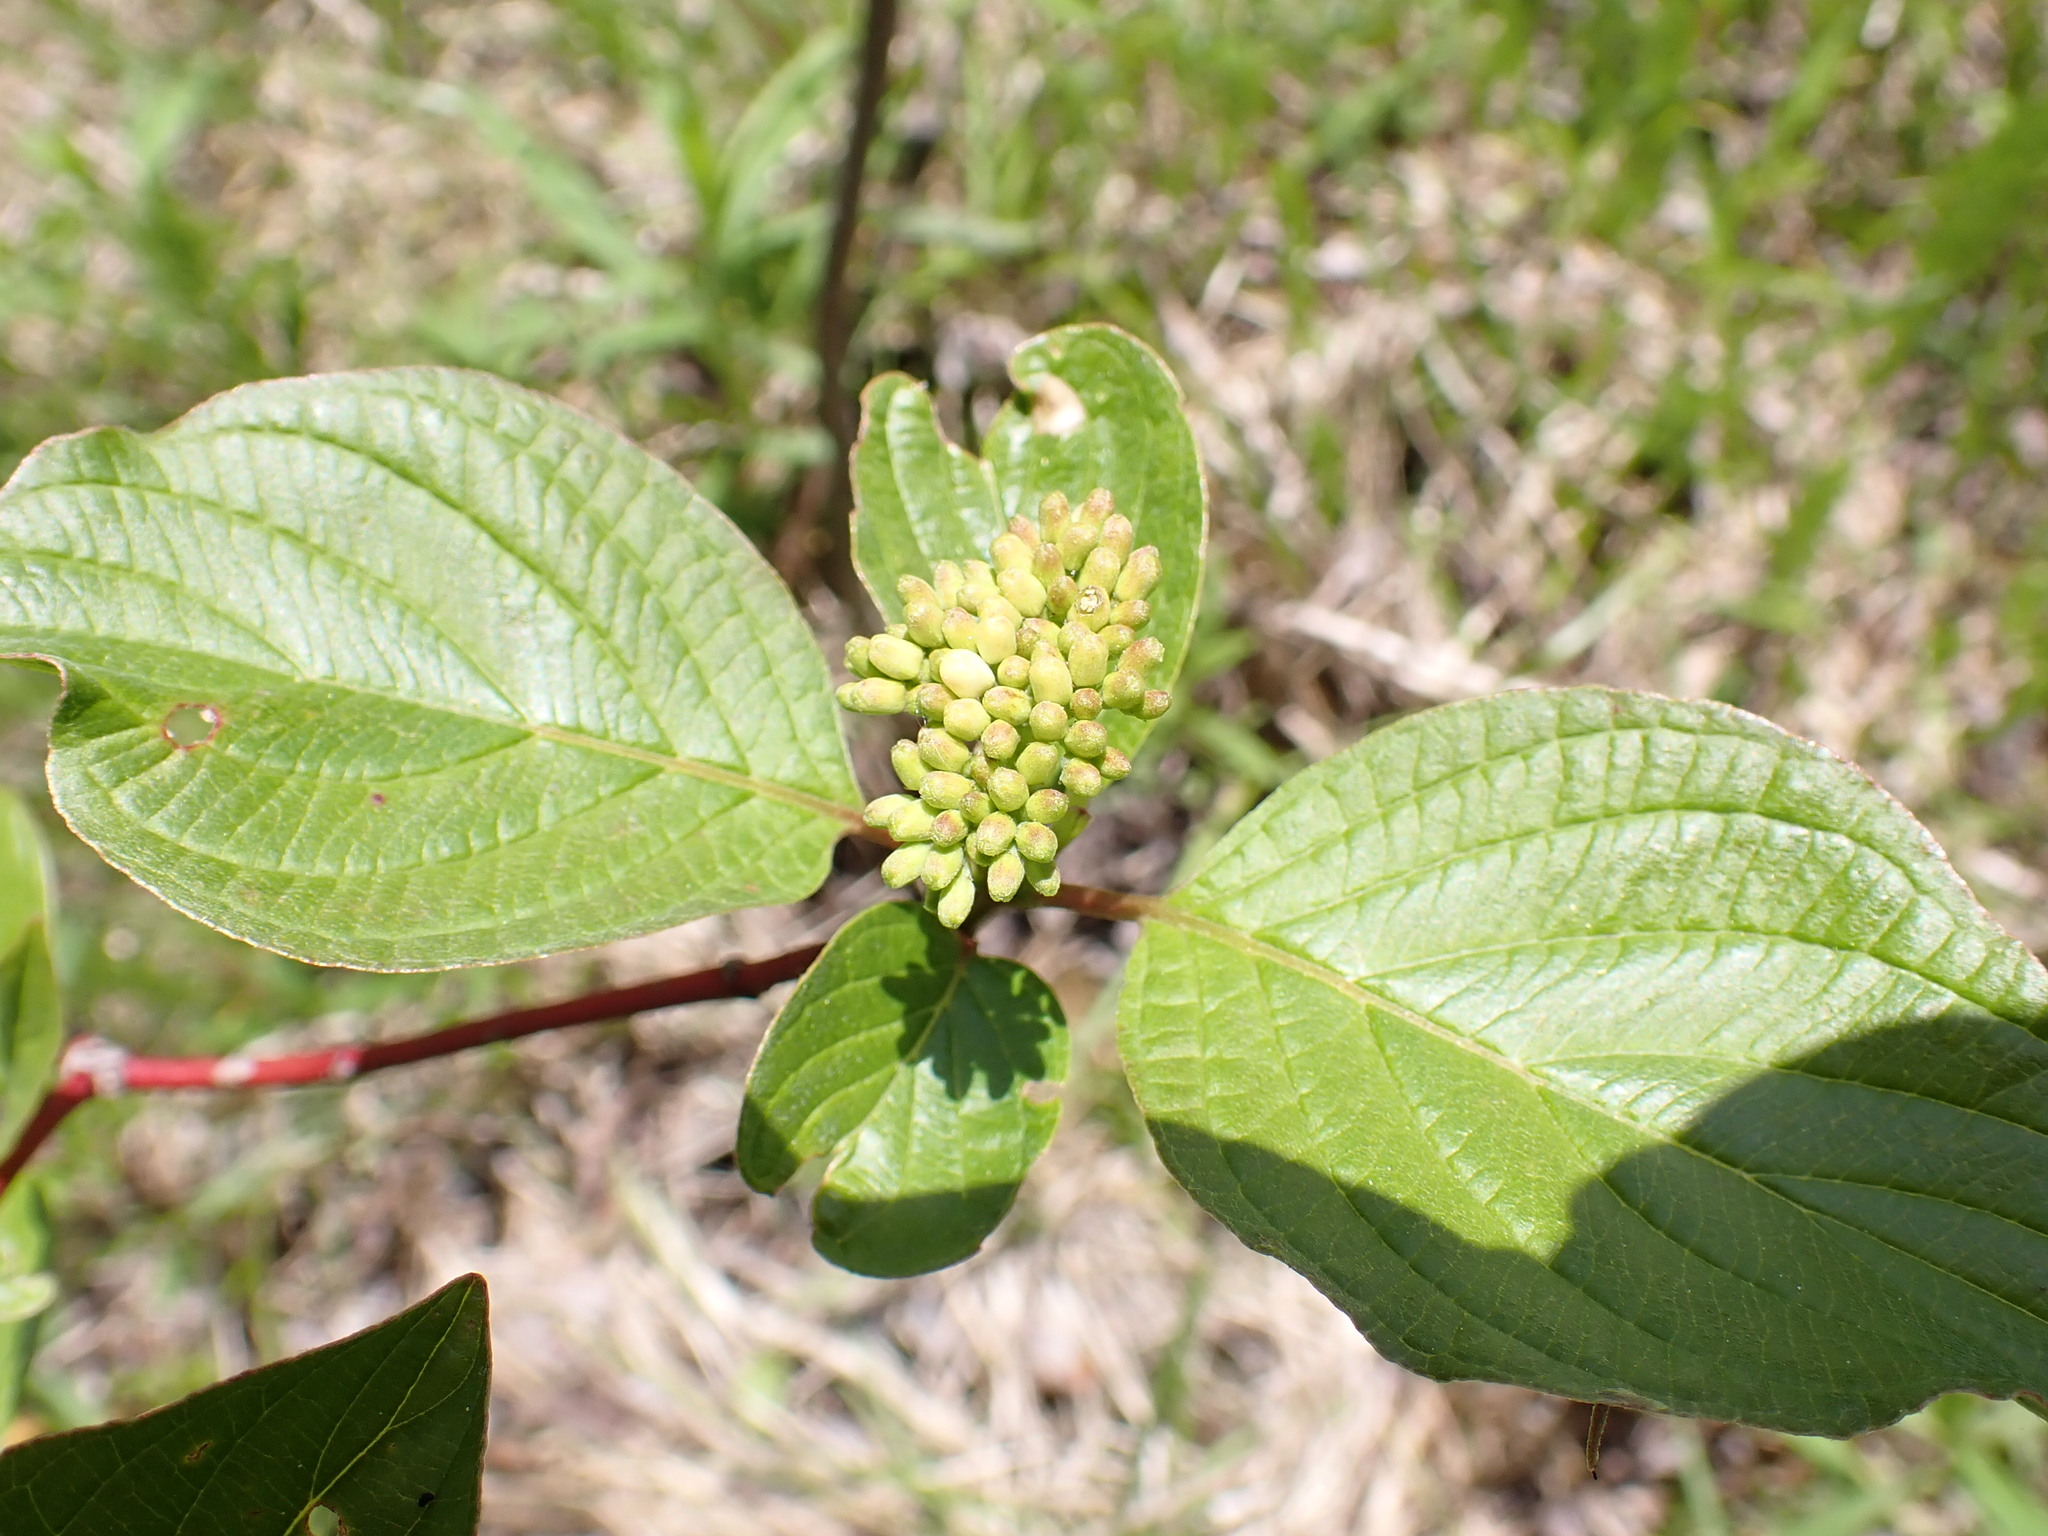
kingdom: Plantae
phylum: Tracheophyta
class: Magnoliopsida
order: Cornales
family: Cornaceae
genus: Cornus
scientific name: Cornus sericea
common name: Red-osier dogwood
